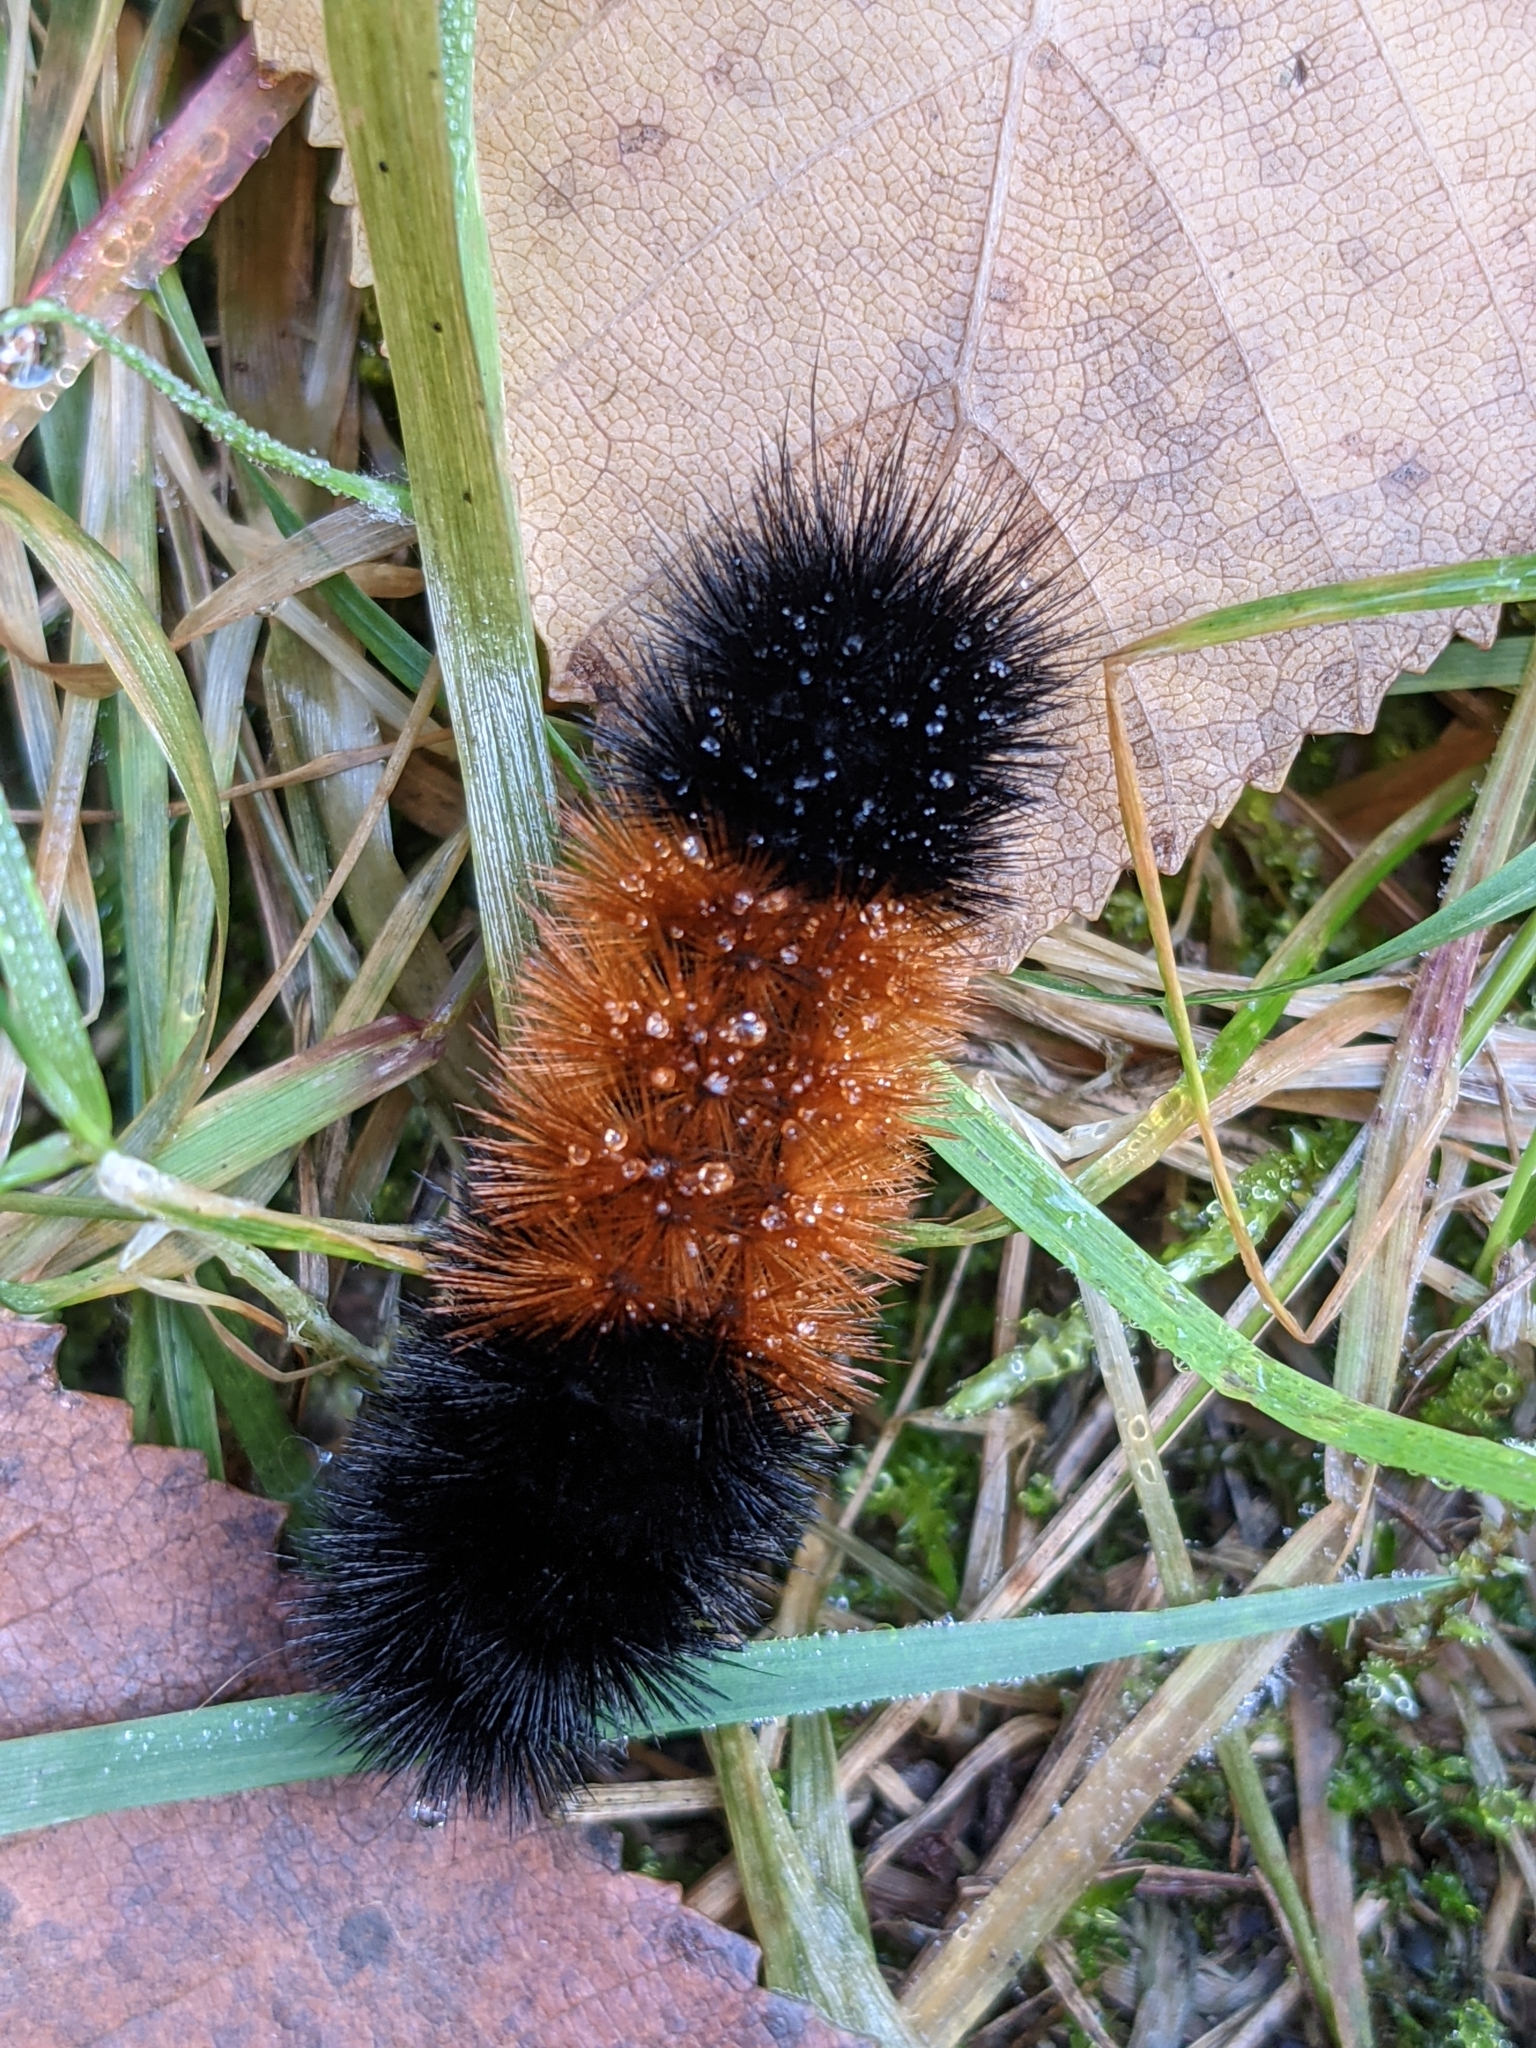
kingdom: Animalia
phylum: Arthropoda
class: Insecta
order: Lepidoptera
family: Erebidae
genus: Pyrrharctia
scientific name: Pyrrharctia isabella
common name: Isabella tiger moth
